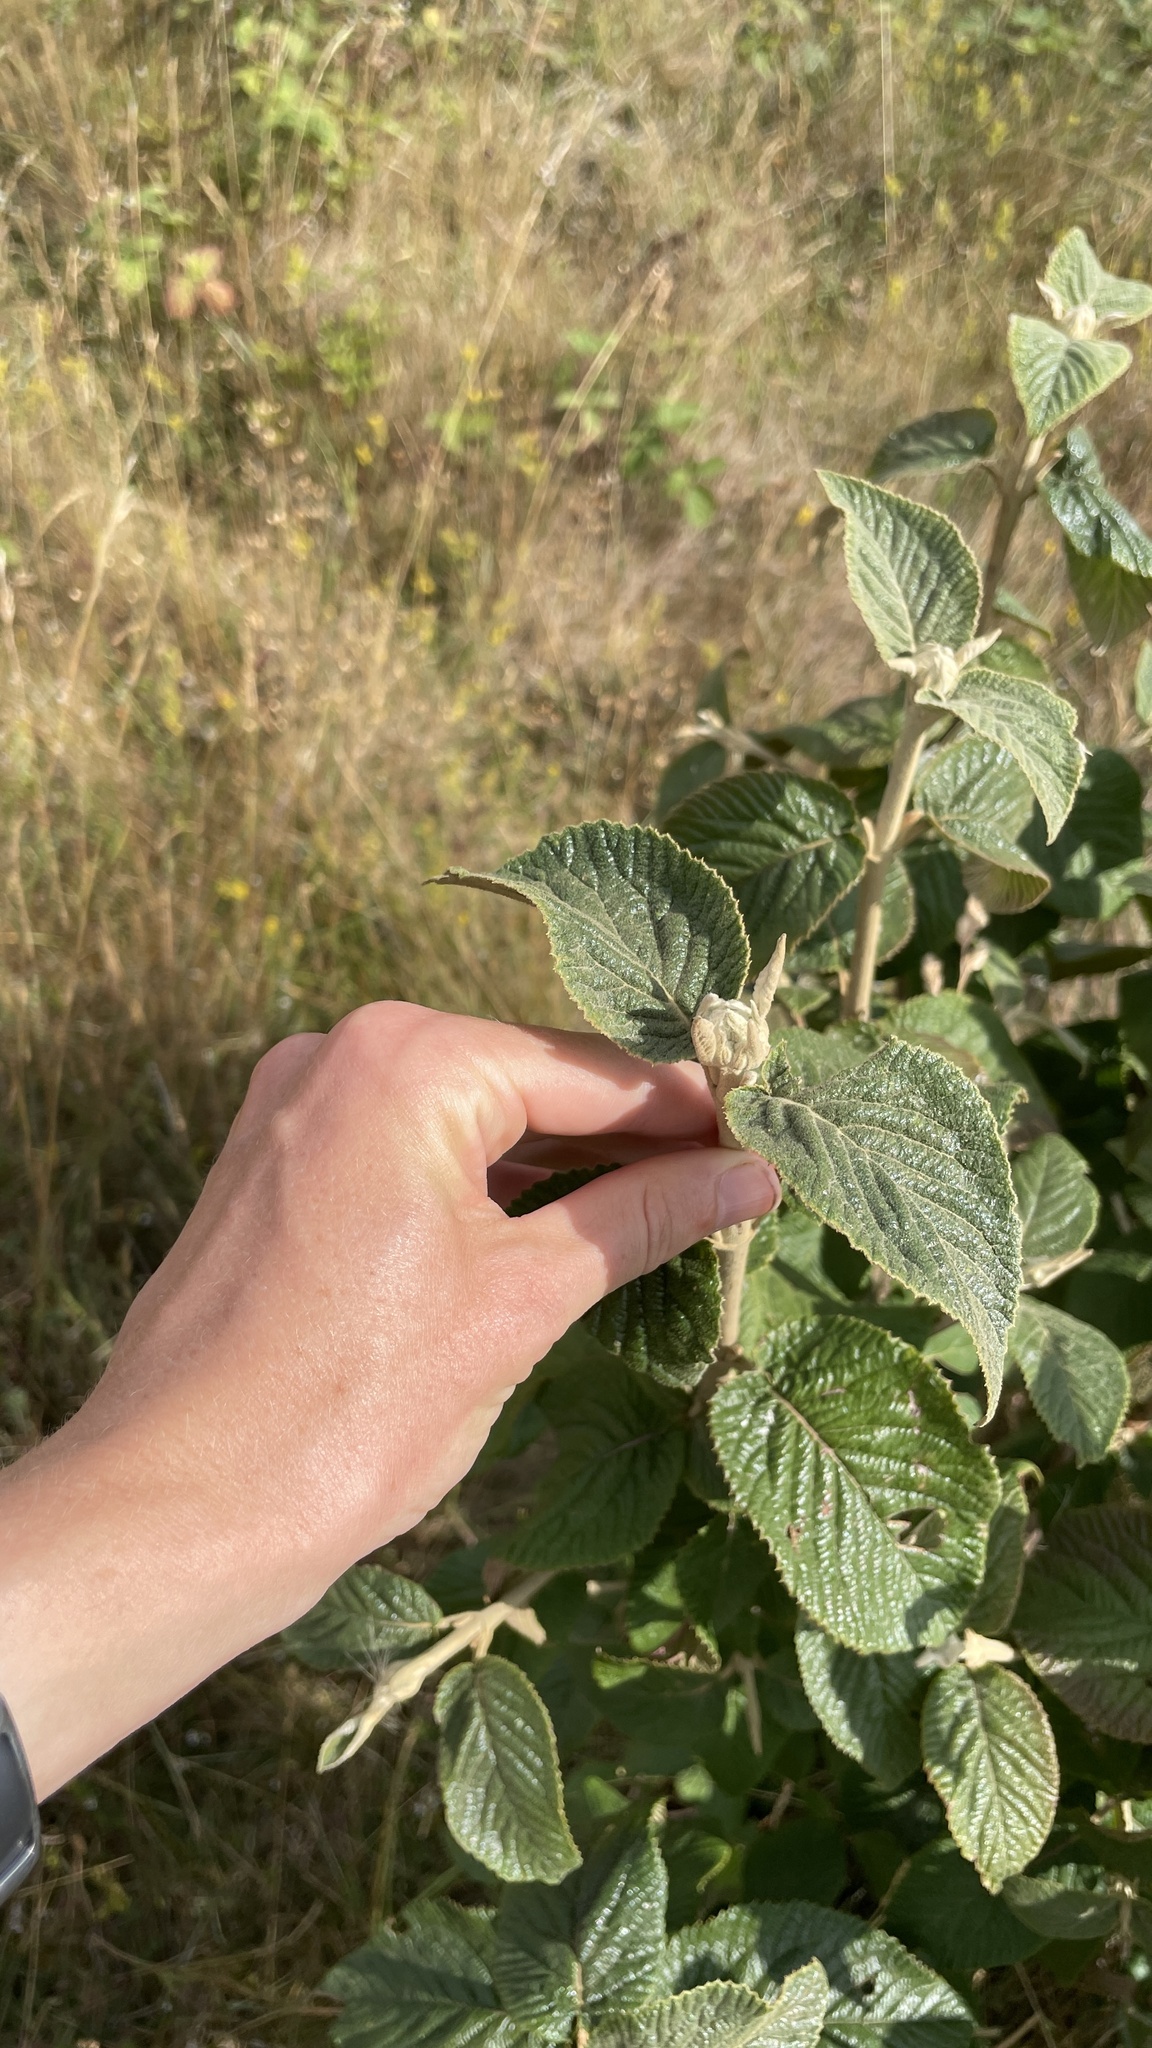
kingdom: Plantae
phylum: Tracheophyta
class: Magnoliopsida
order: Dipsacales
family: Viburnaceae
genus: Viburnum
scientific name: Viburnum lantana
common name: Wayfaring tree
